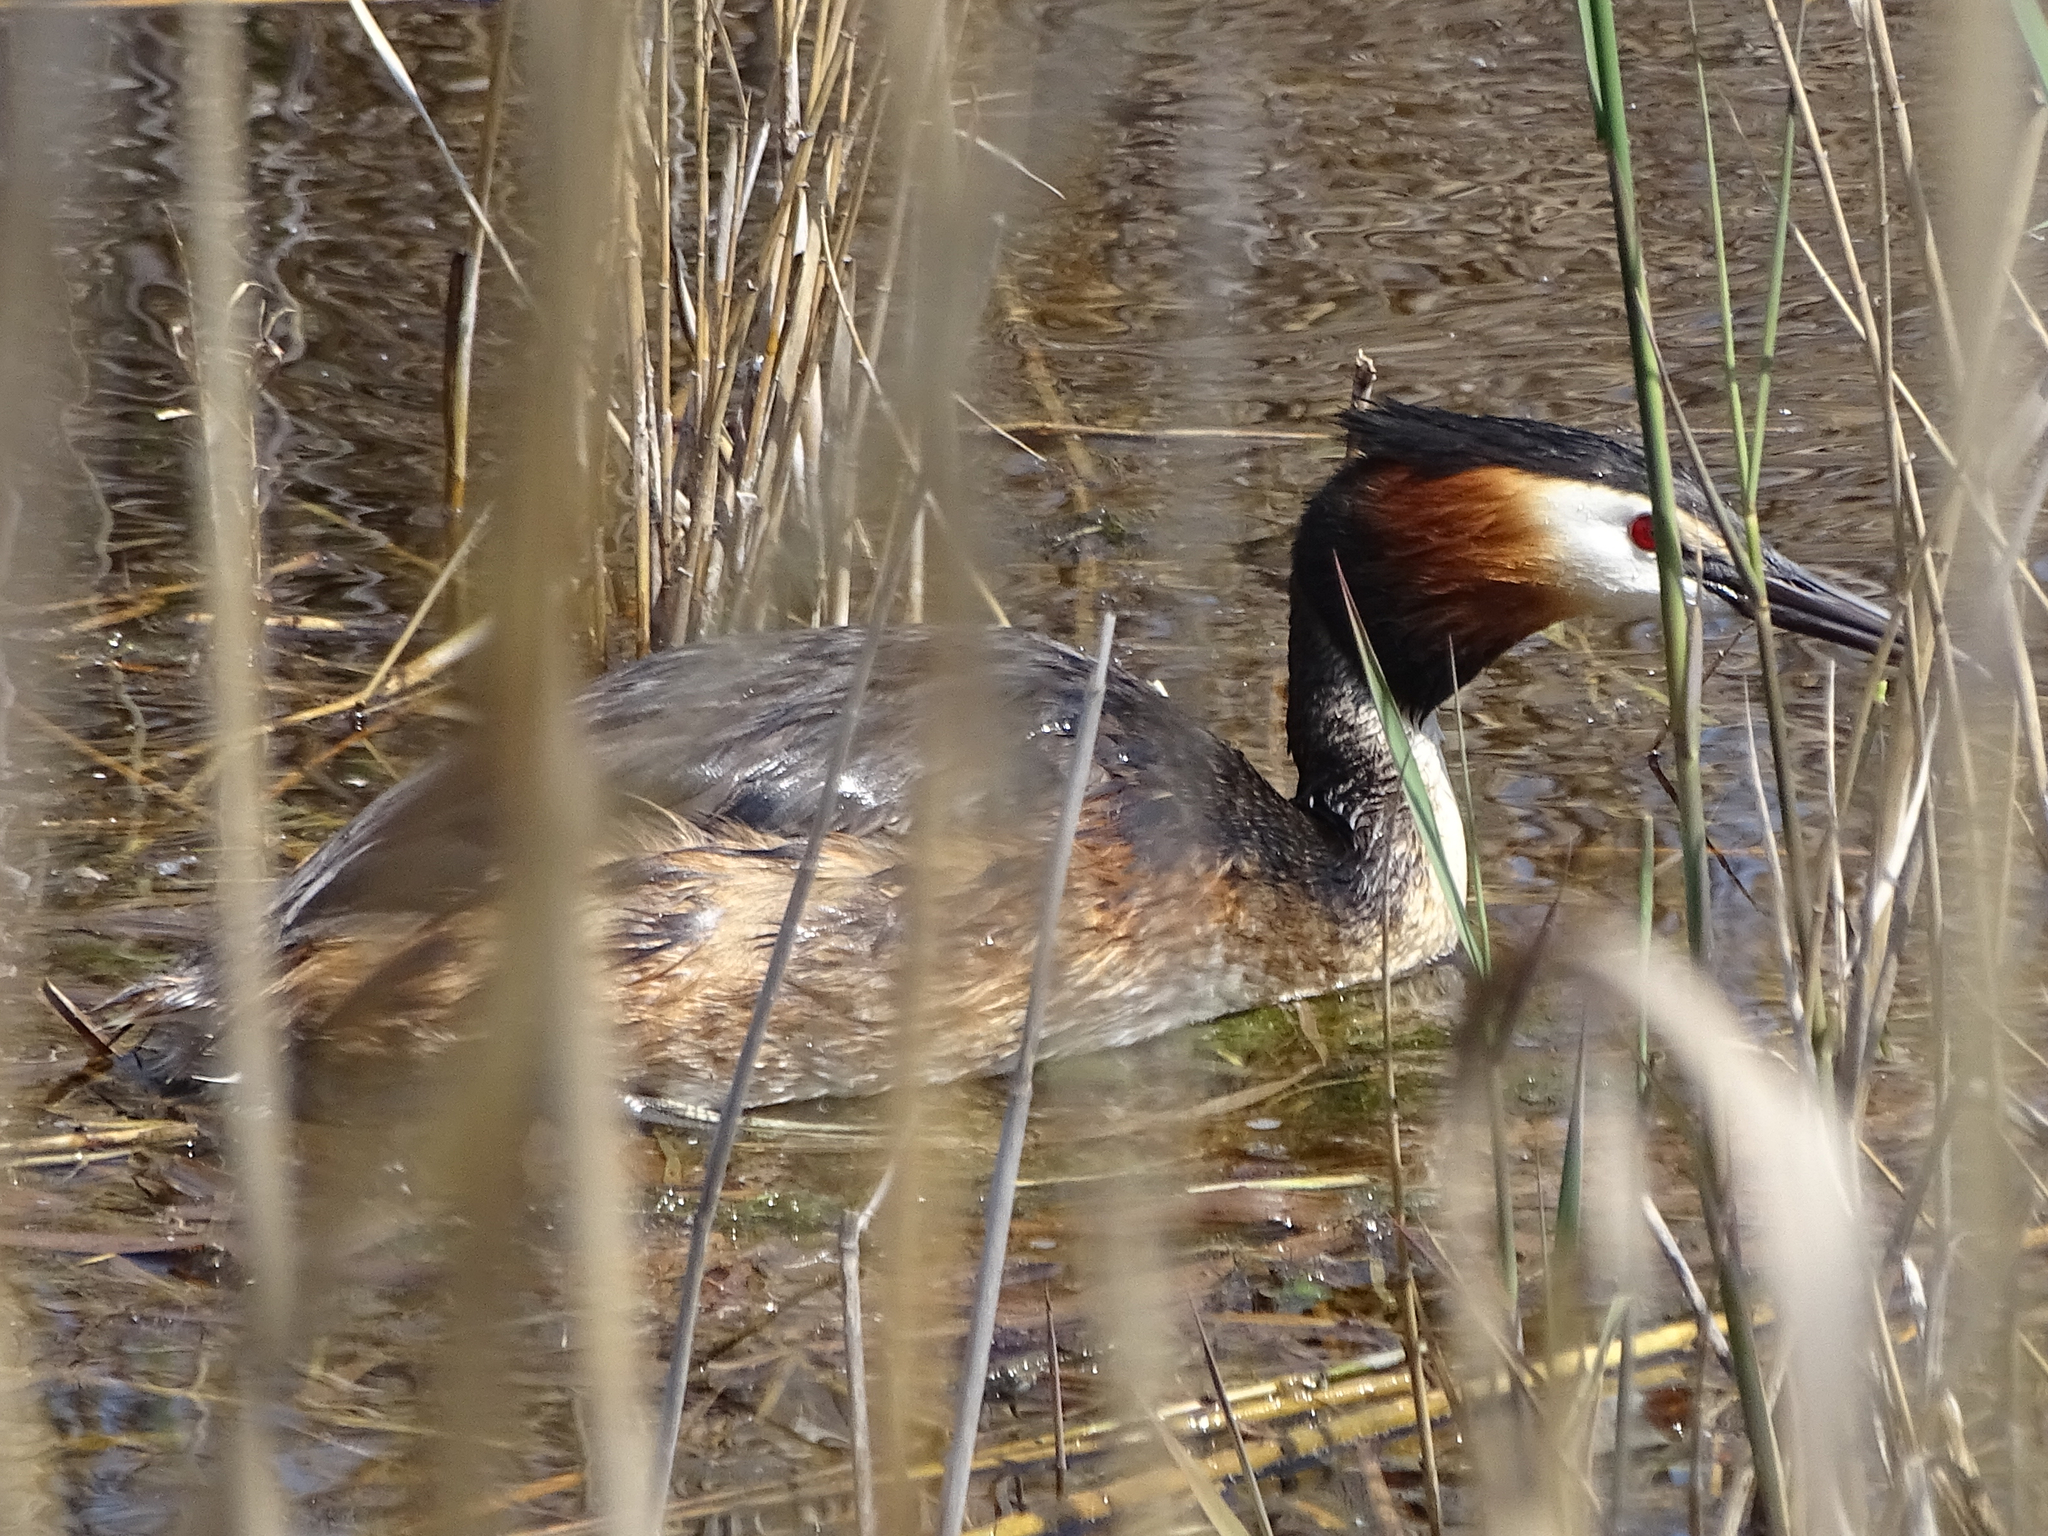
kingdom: Animalia
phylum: Chordata
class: Aves
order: Podicipediformes
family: Podicipedidae
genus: Podiceps
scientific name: Podiceps cristatus
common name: Great crested grebe
